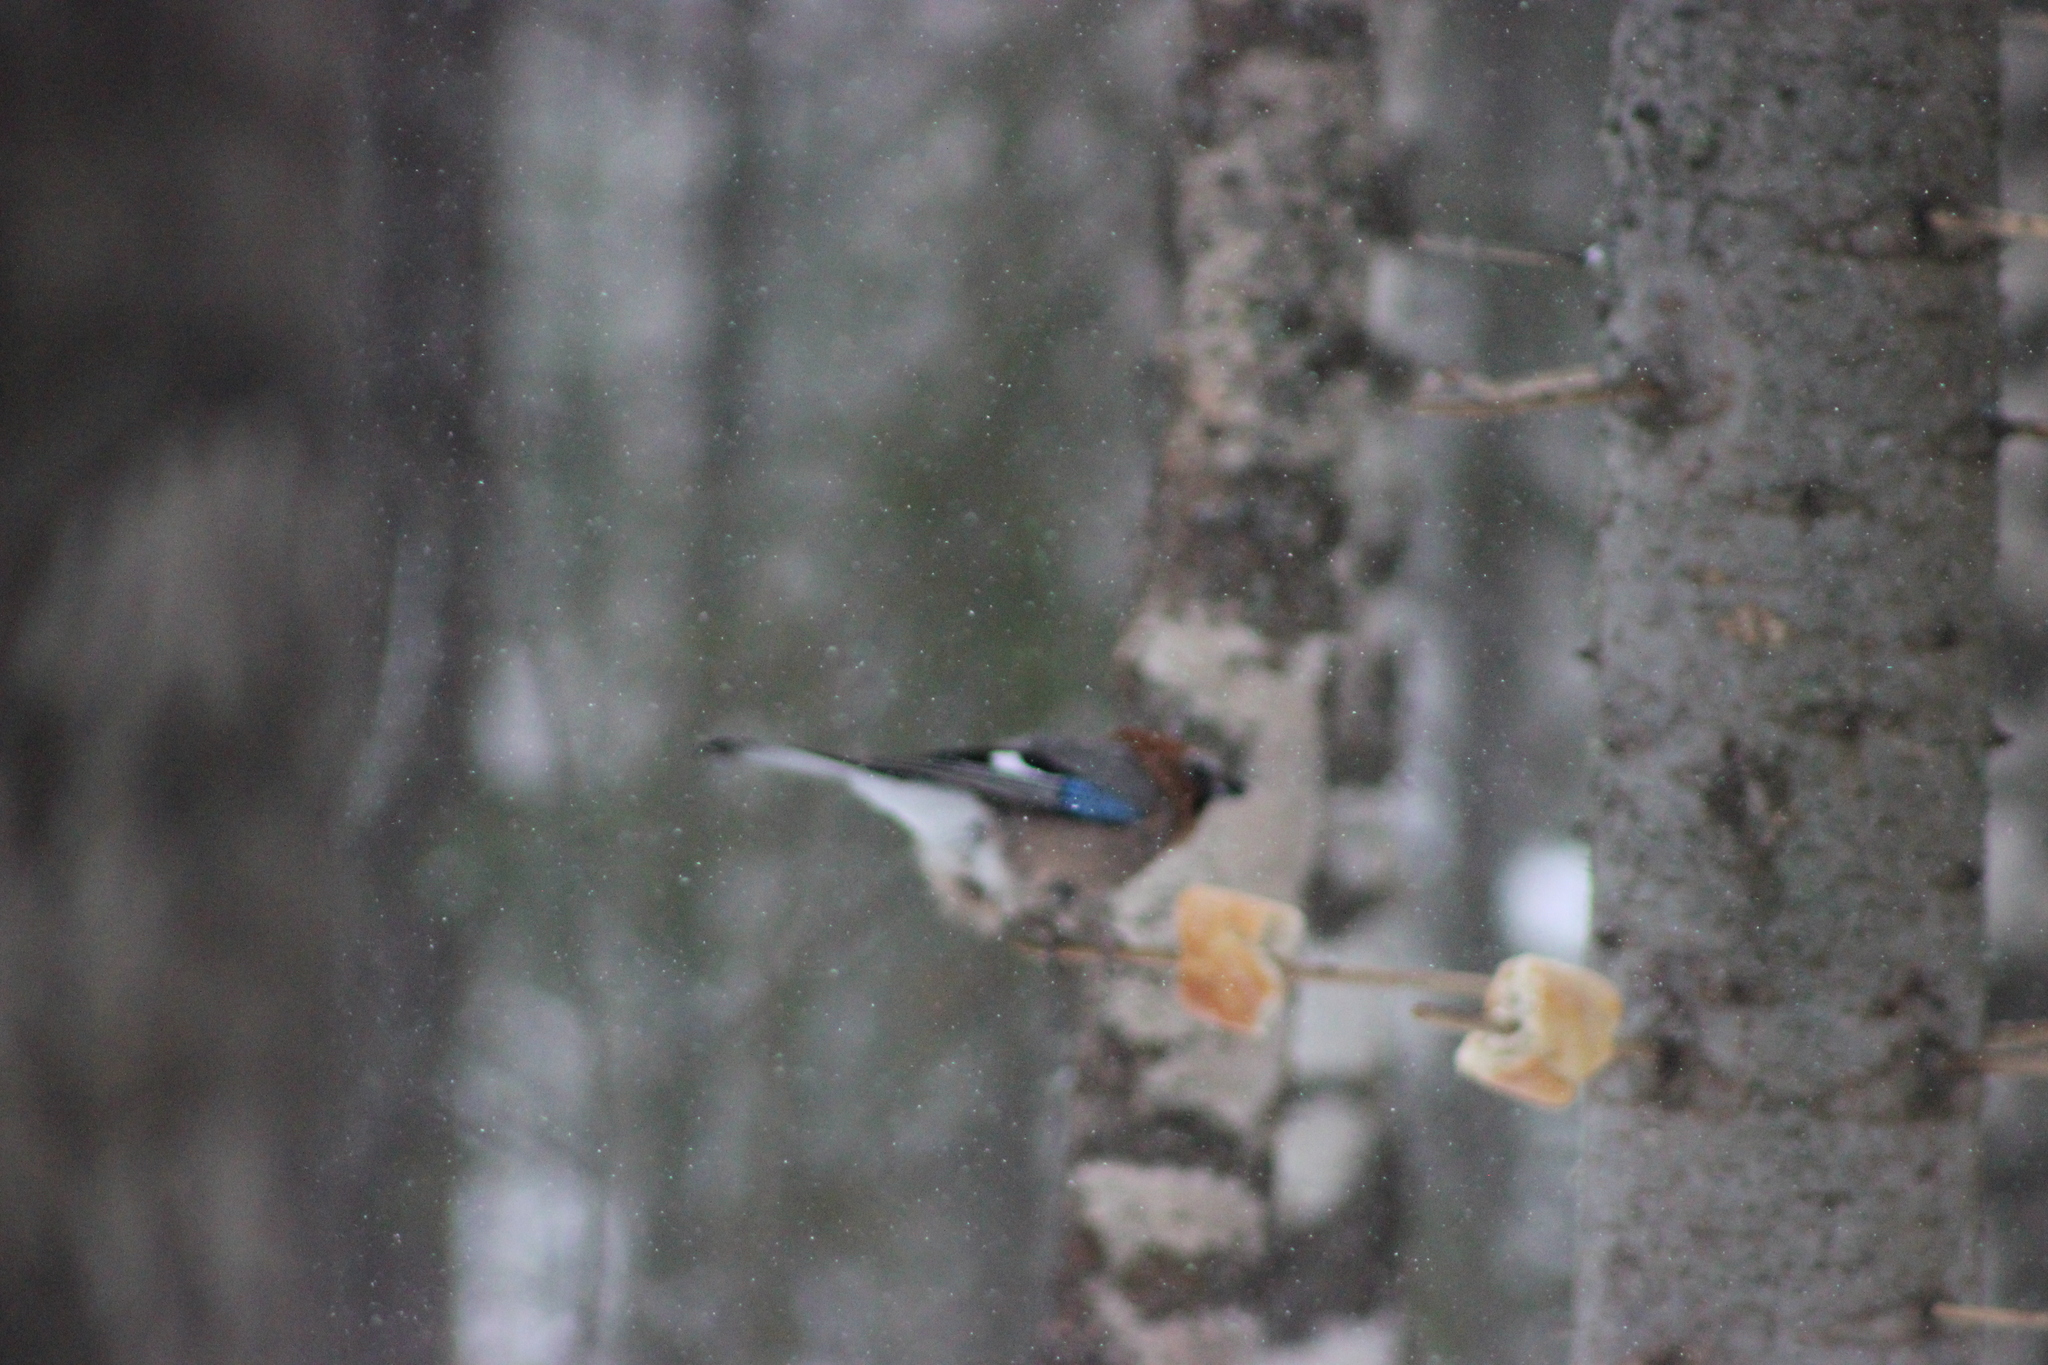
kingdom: Animalia
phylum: Chordata
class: Aves
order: Passeriformes
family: Corvidae
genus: Garrulus
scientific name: Garrulus glandarius
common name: Eurasian jay
